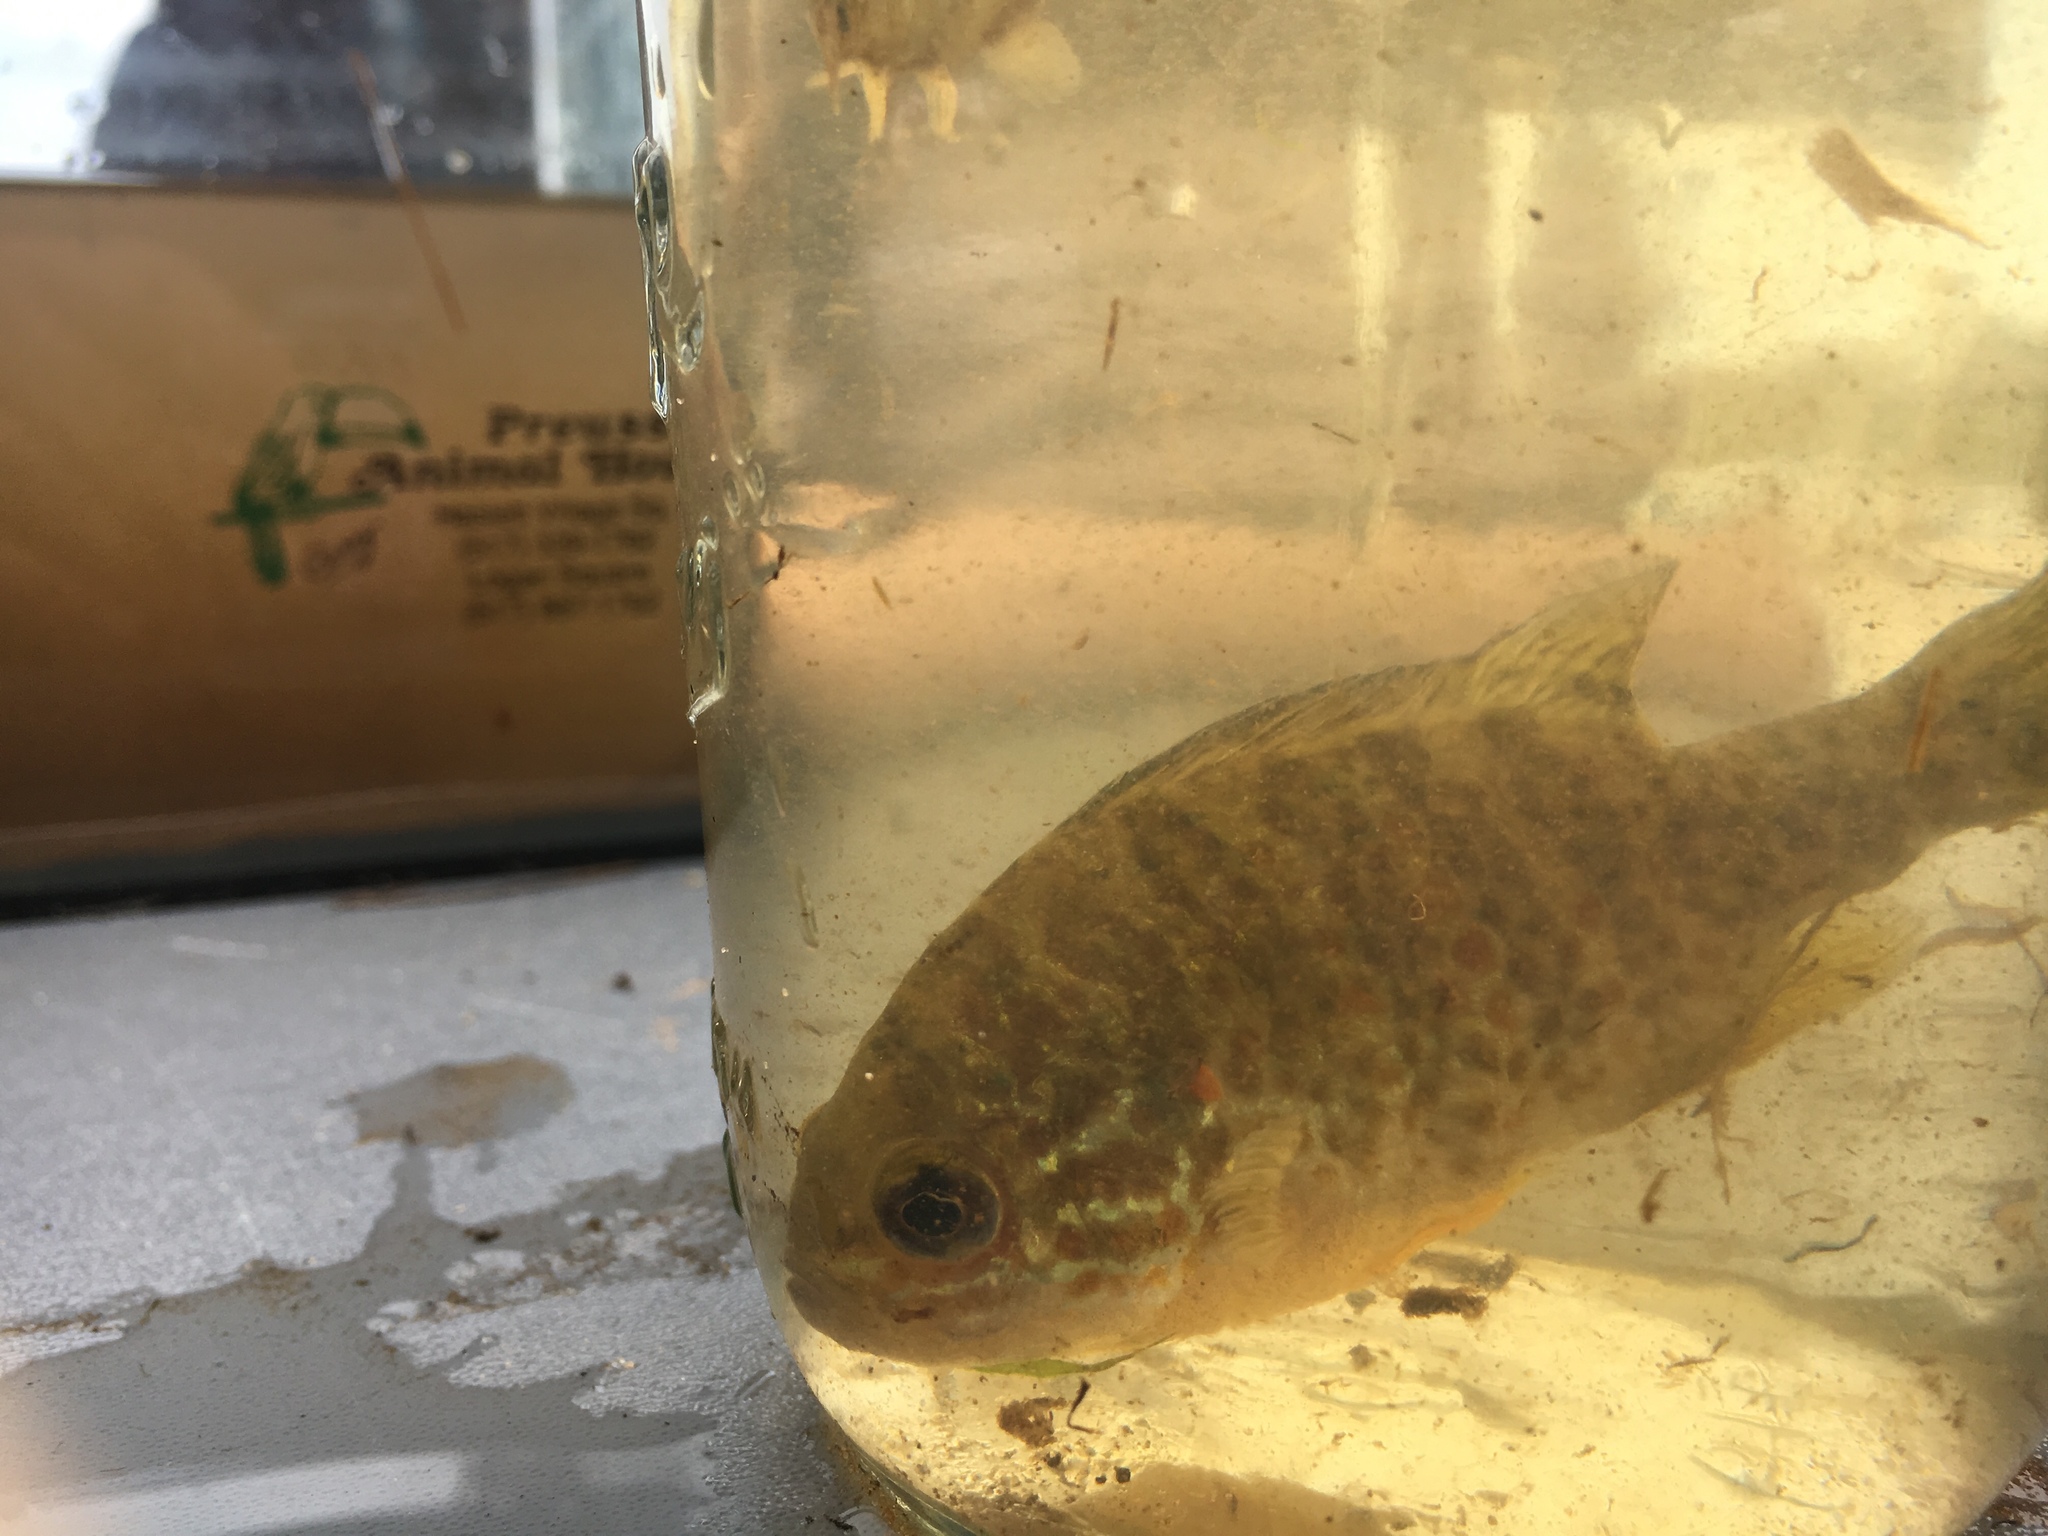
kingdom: Animalia
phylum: Chordata
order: Perciformes
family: Centrarchidae
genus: Lepomis
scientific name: Lepomis gibbosus
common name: Pumpkinseed
